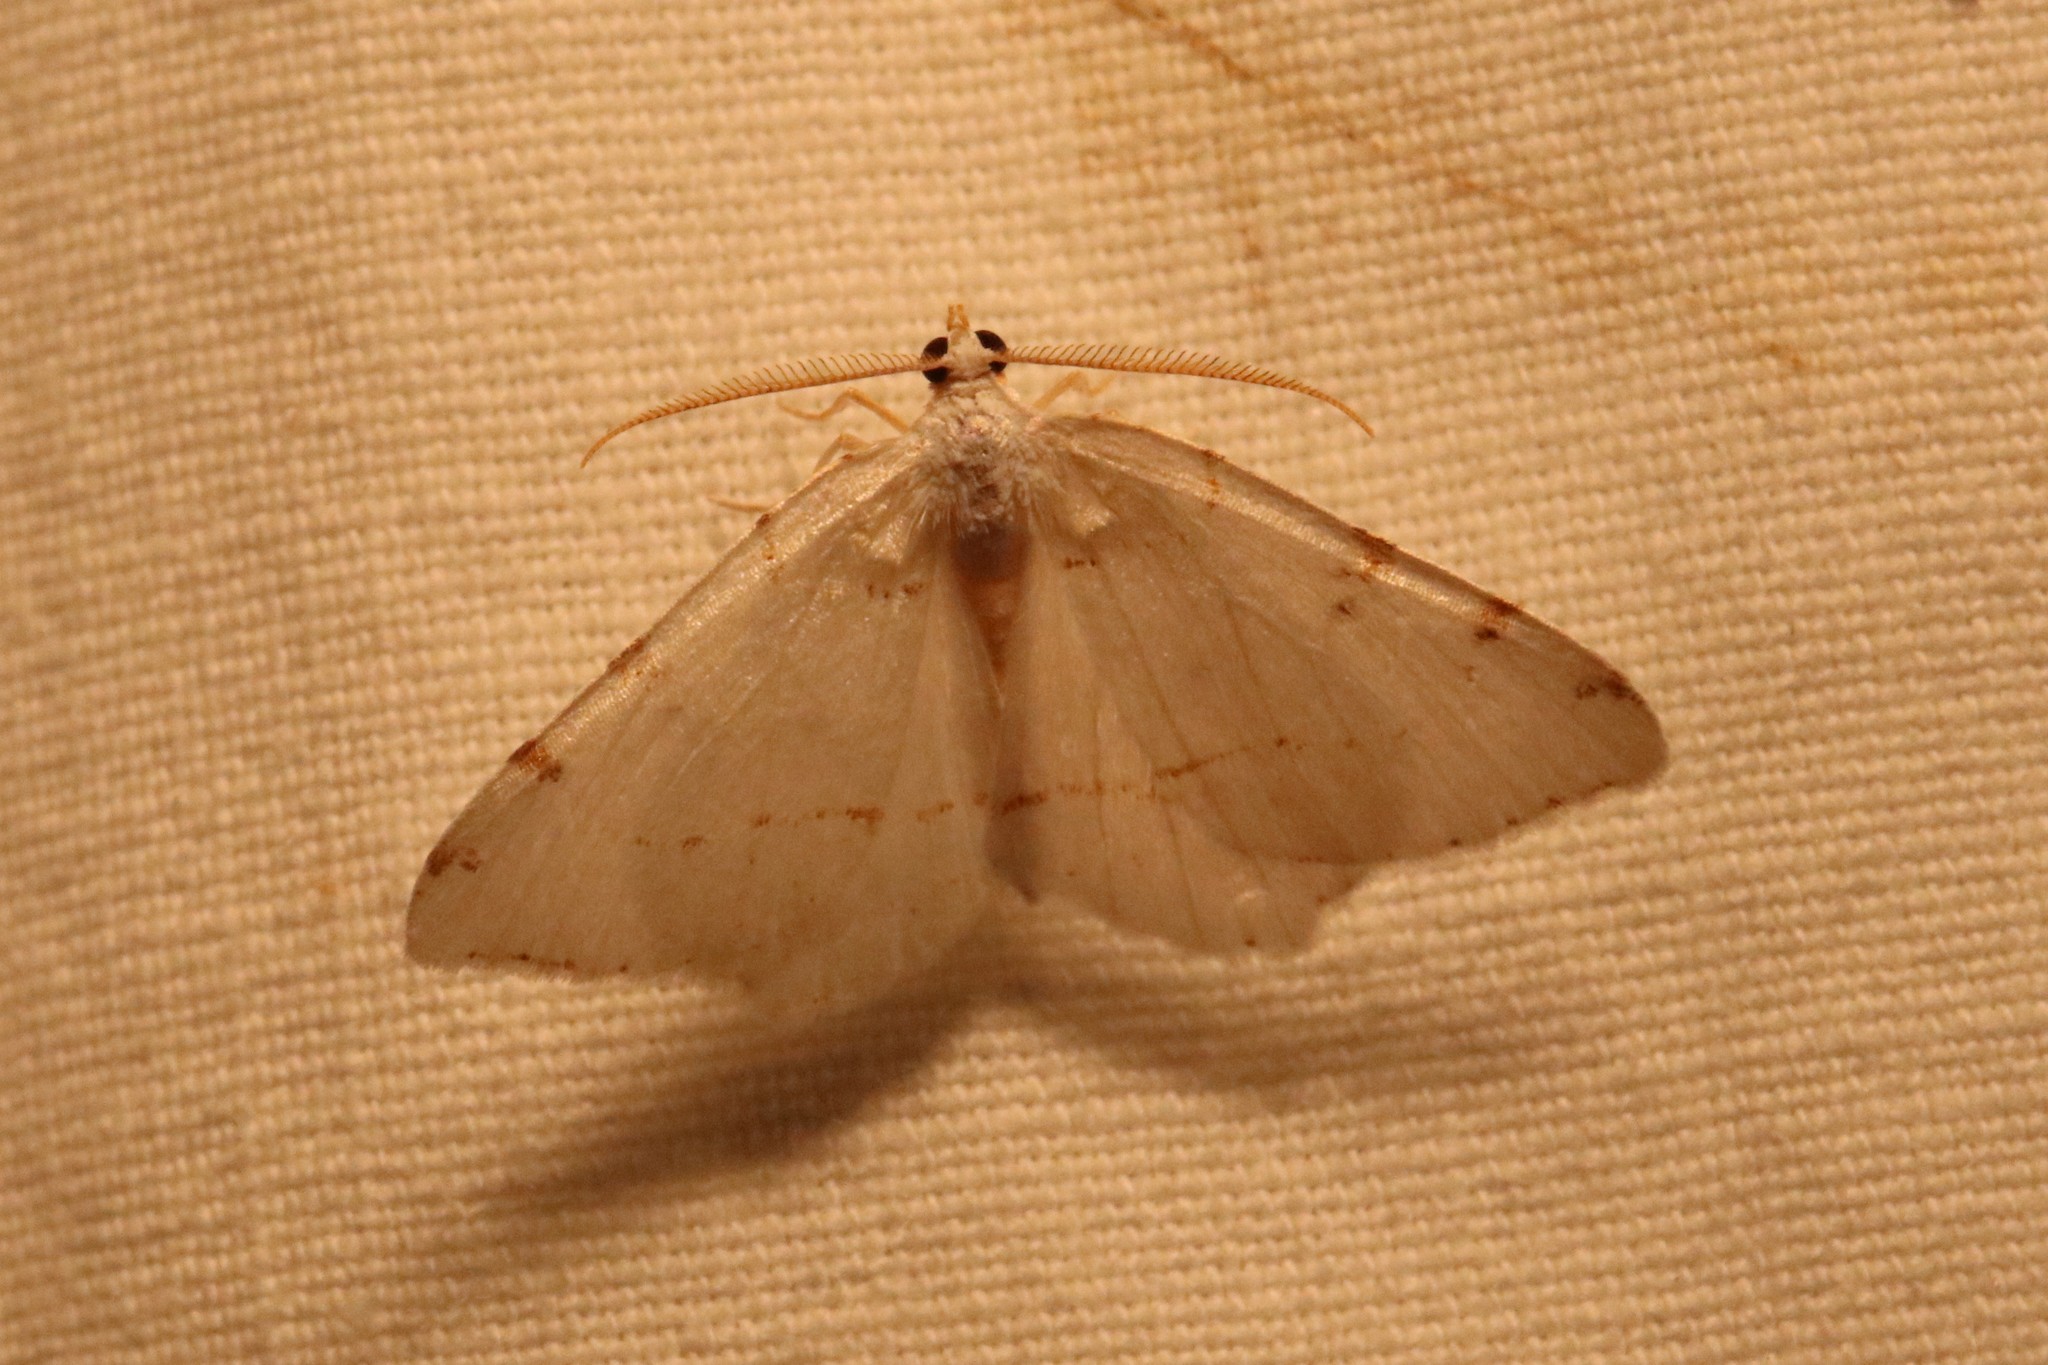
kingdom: Animalia
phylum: Arthropoda
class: Insecta
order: Lepidoptera
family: Geometridae
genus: Macaria
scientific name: Macaria pustularia
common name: Lesser maple spanworm moth
